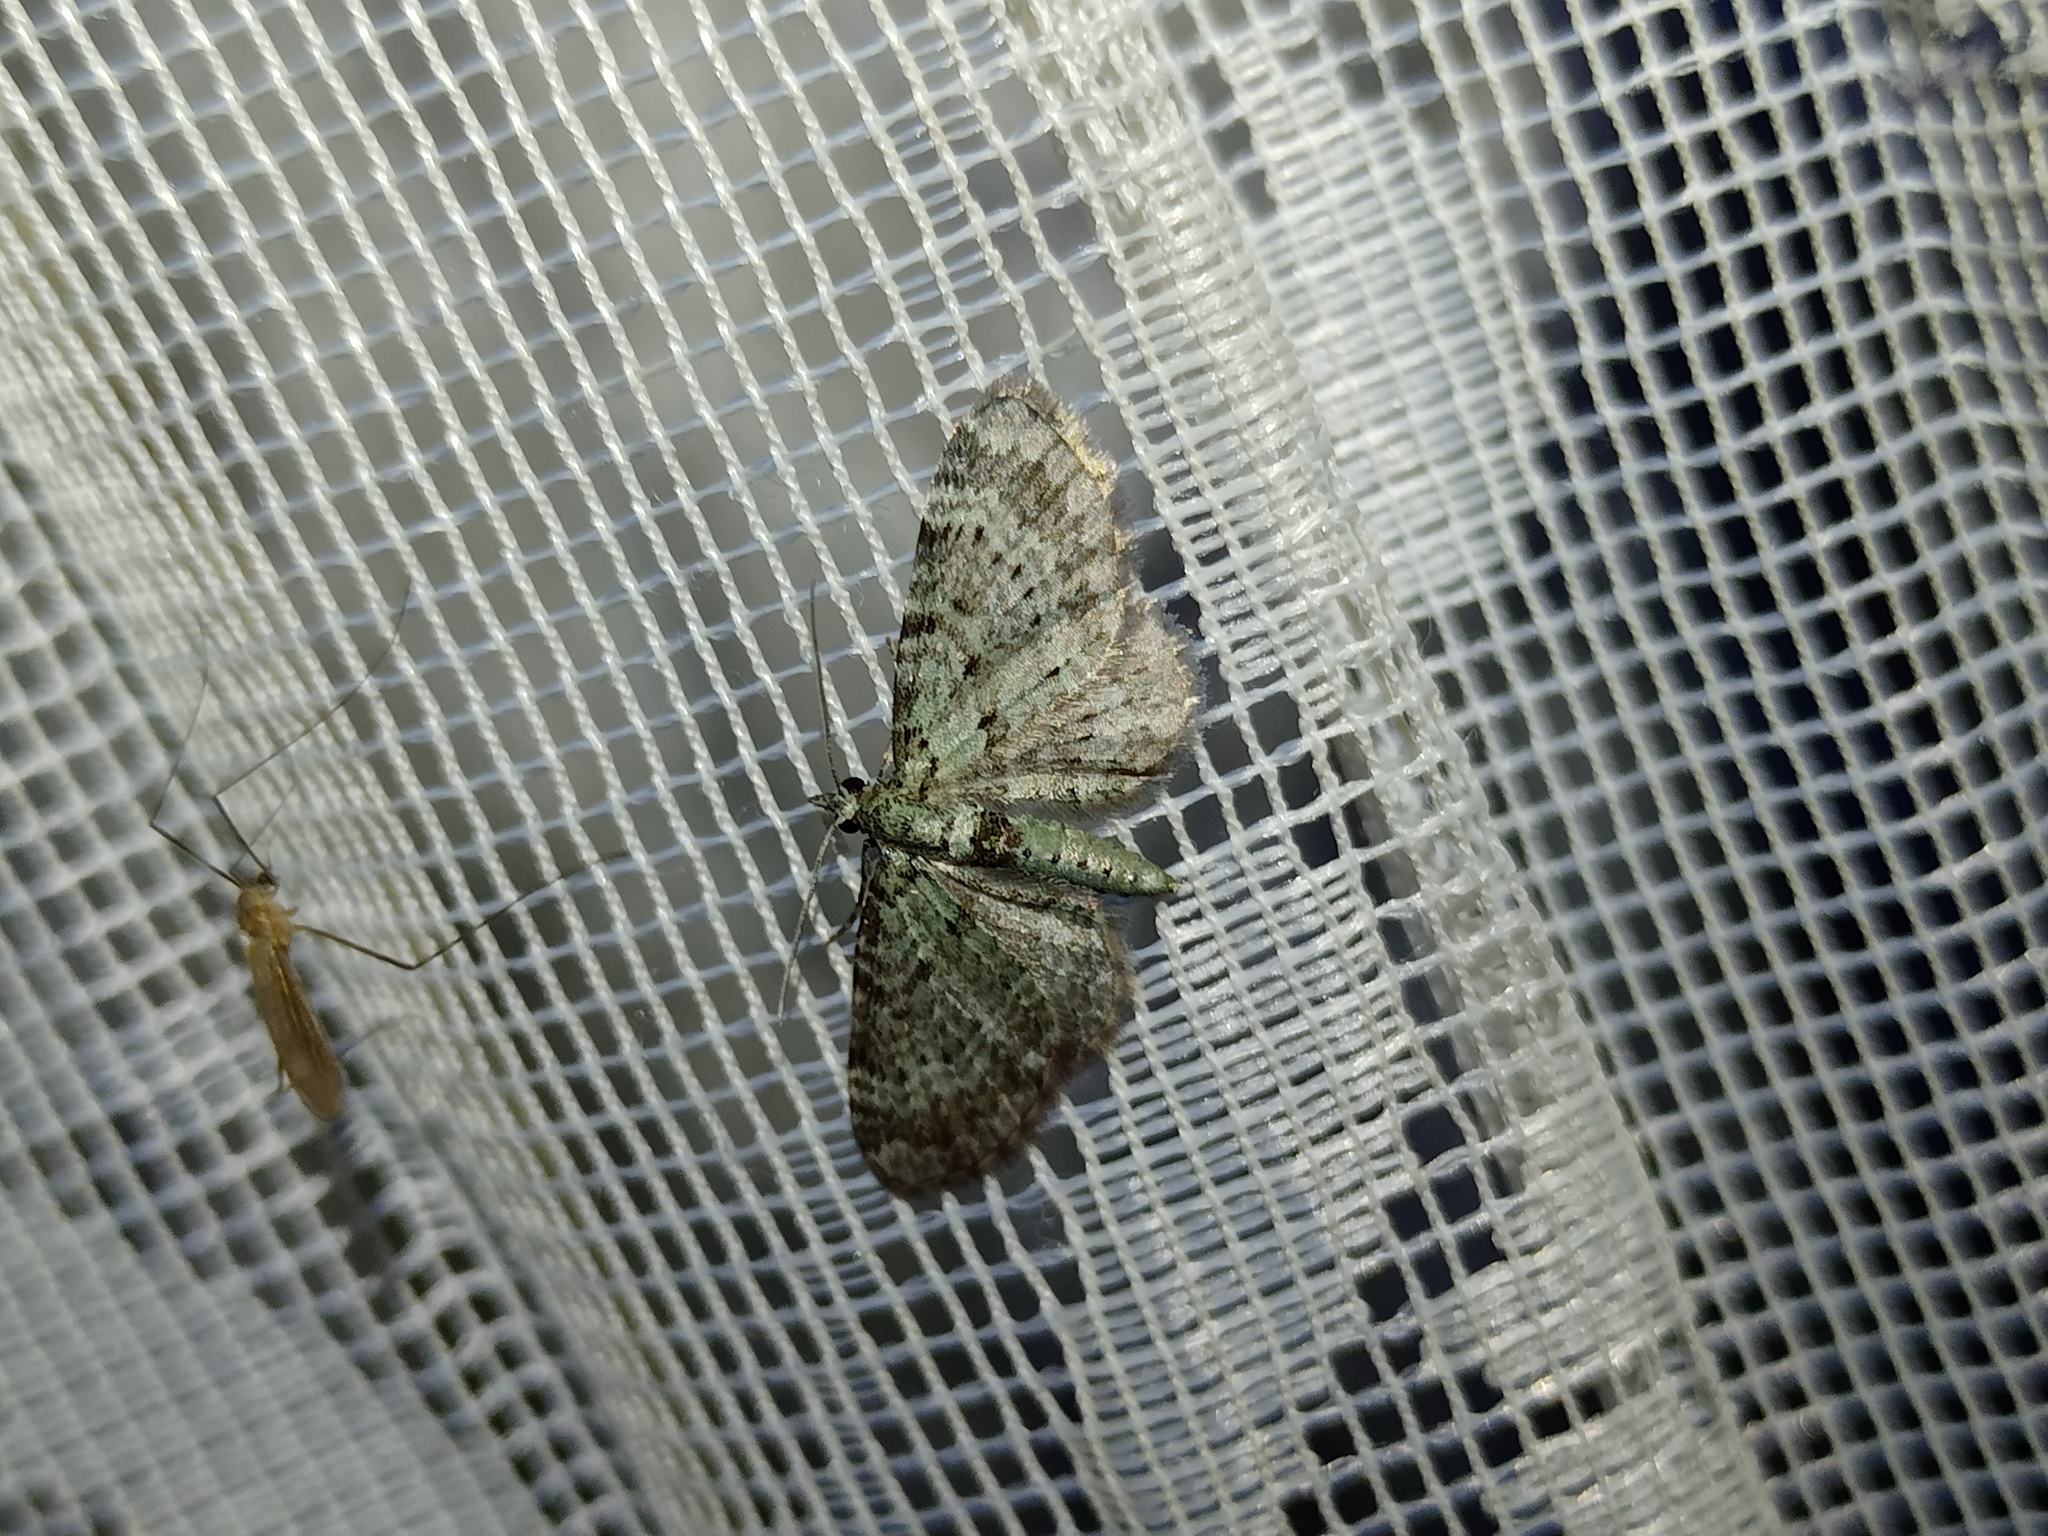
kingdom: Animalia
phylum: Arthropoda
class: Insecta
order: Lepidoptera
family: Geometridae
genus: Pasiphila
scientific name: Pasiphila rectangulata
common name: Green pug
